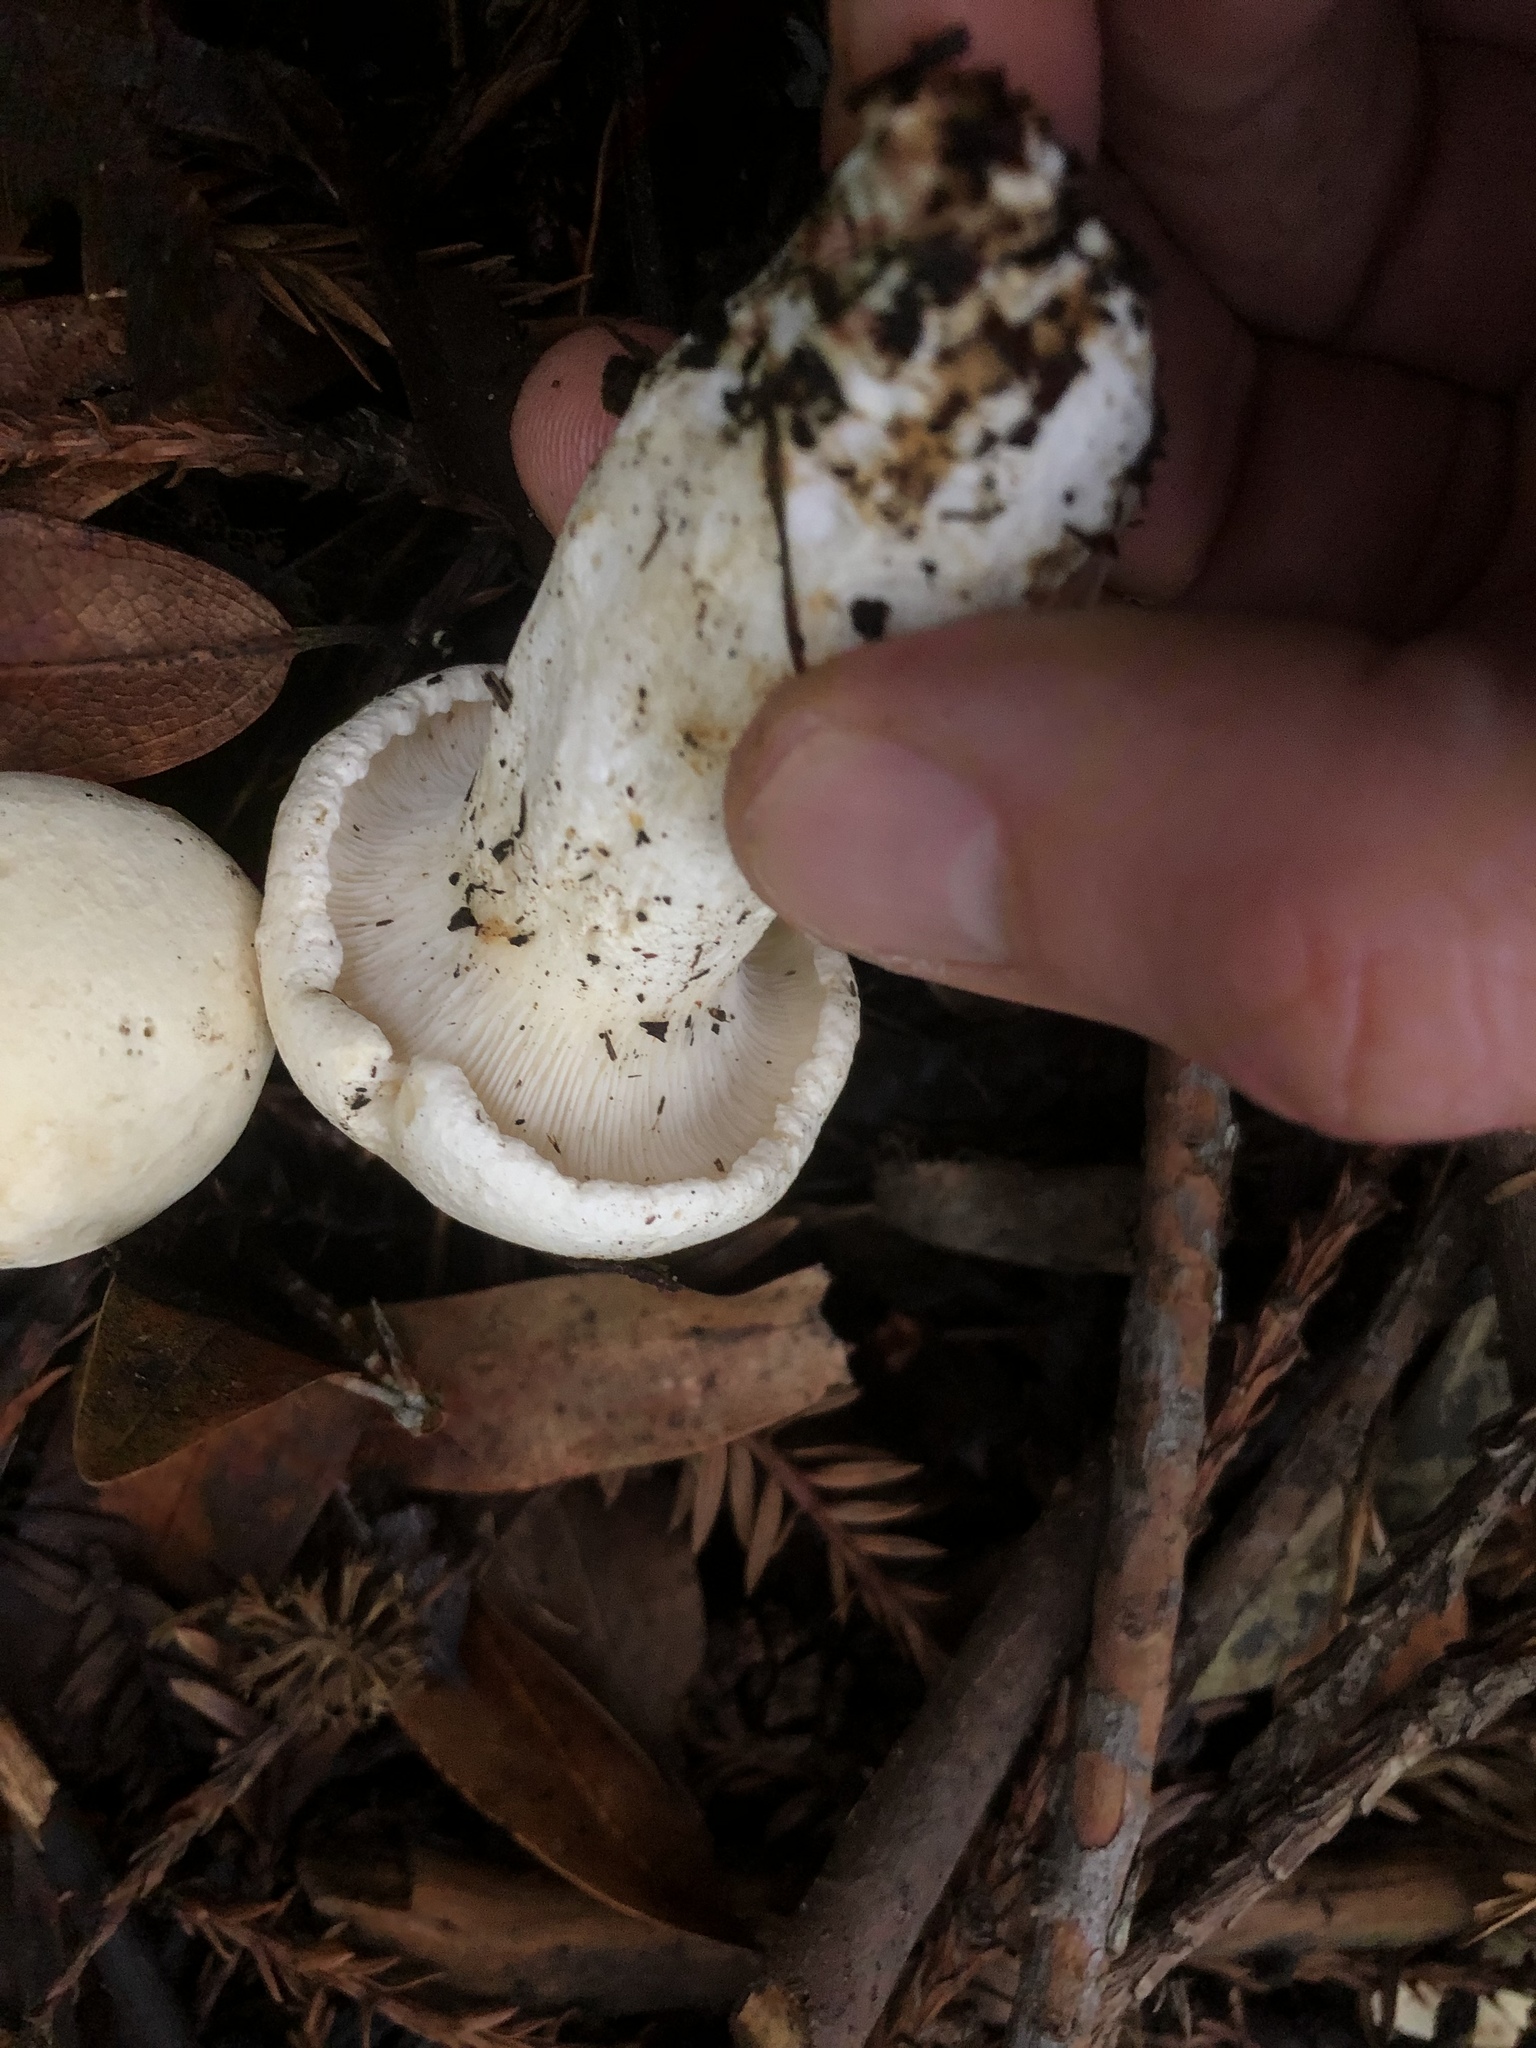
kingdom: Fungi
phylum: Basidiomycota
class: Agaricomycetes
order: Agaricales
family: Tricholomataceae
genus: Leucopaxillus
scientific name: Leucopaxillus albissimus
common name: Large white leucopax
